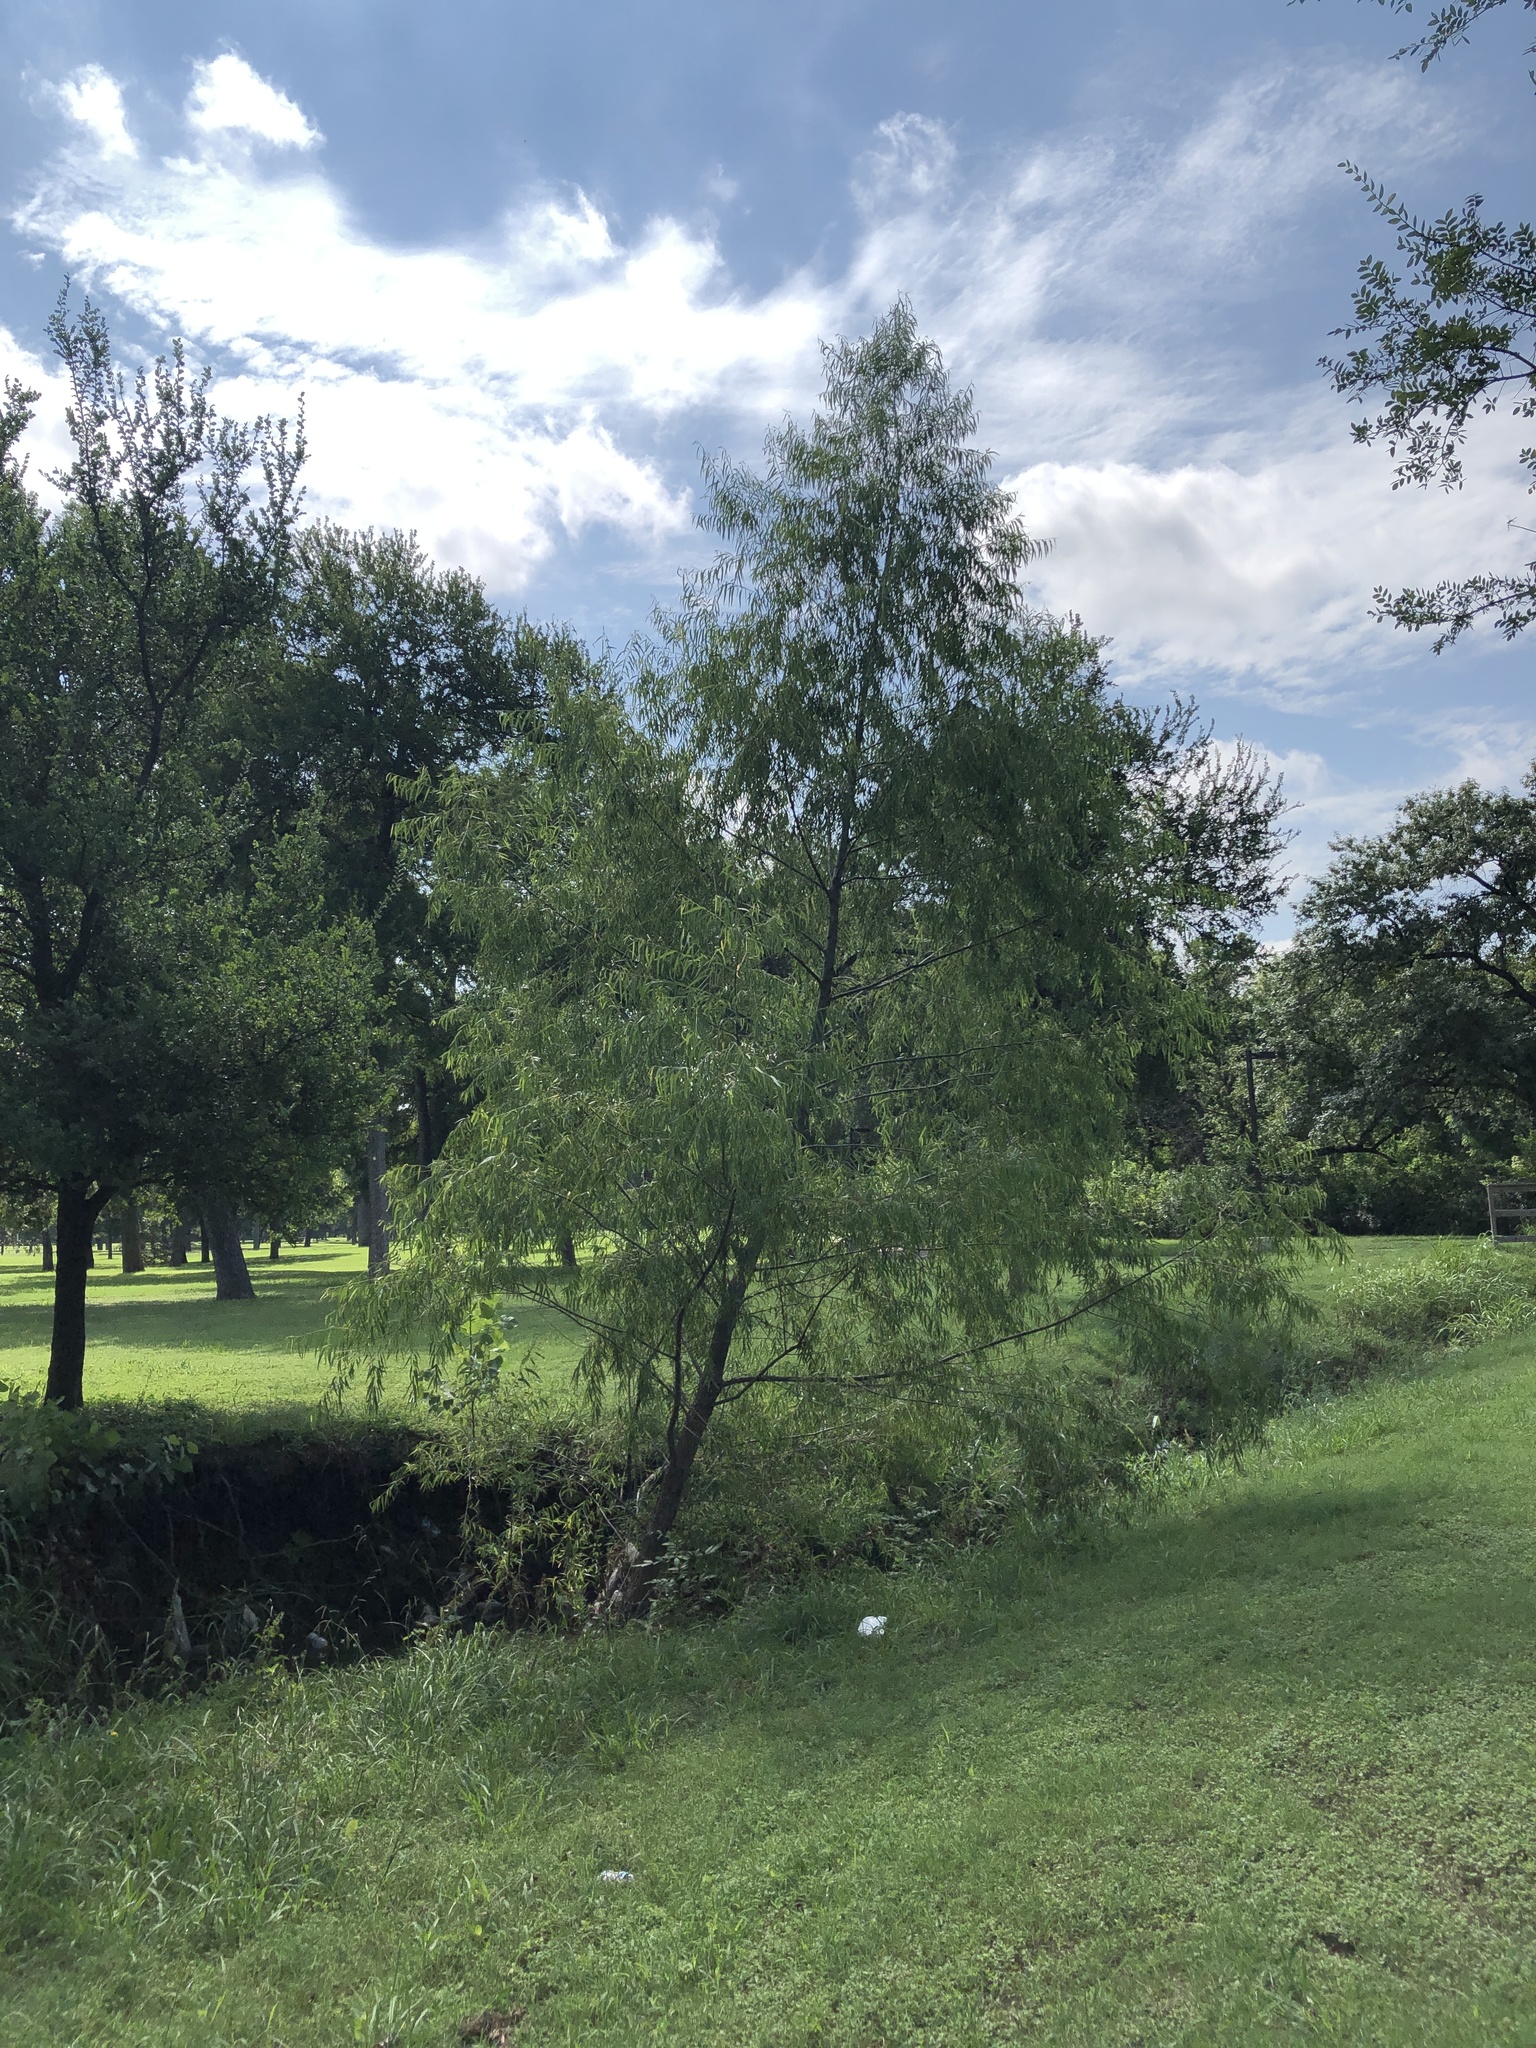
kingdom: Plantae
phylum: Tracheophyta
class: Magnoliopsida
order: Malpighiales
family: Salicaceae
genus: Salix
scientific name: Salix nigra
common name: Black willow
